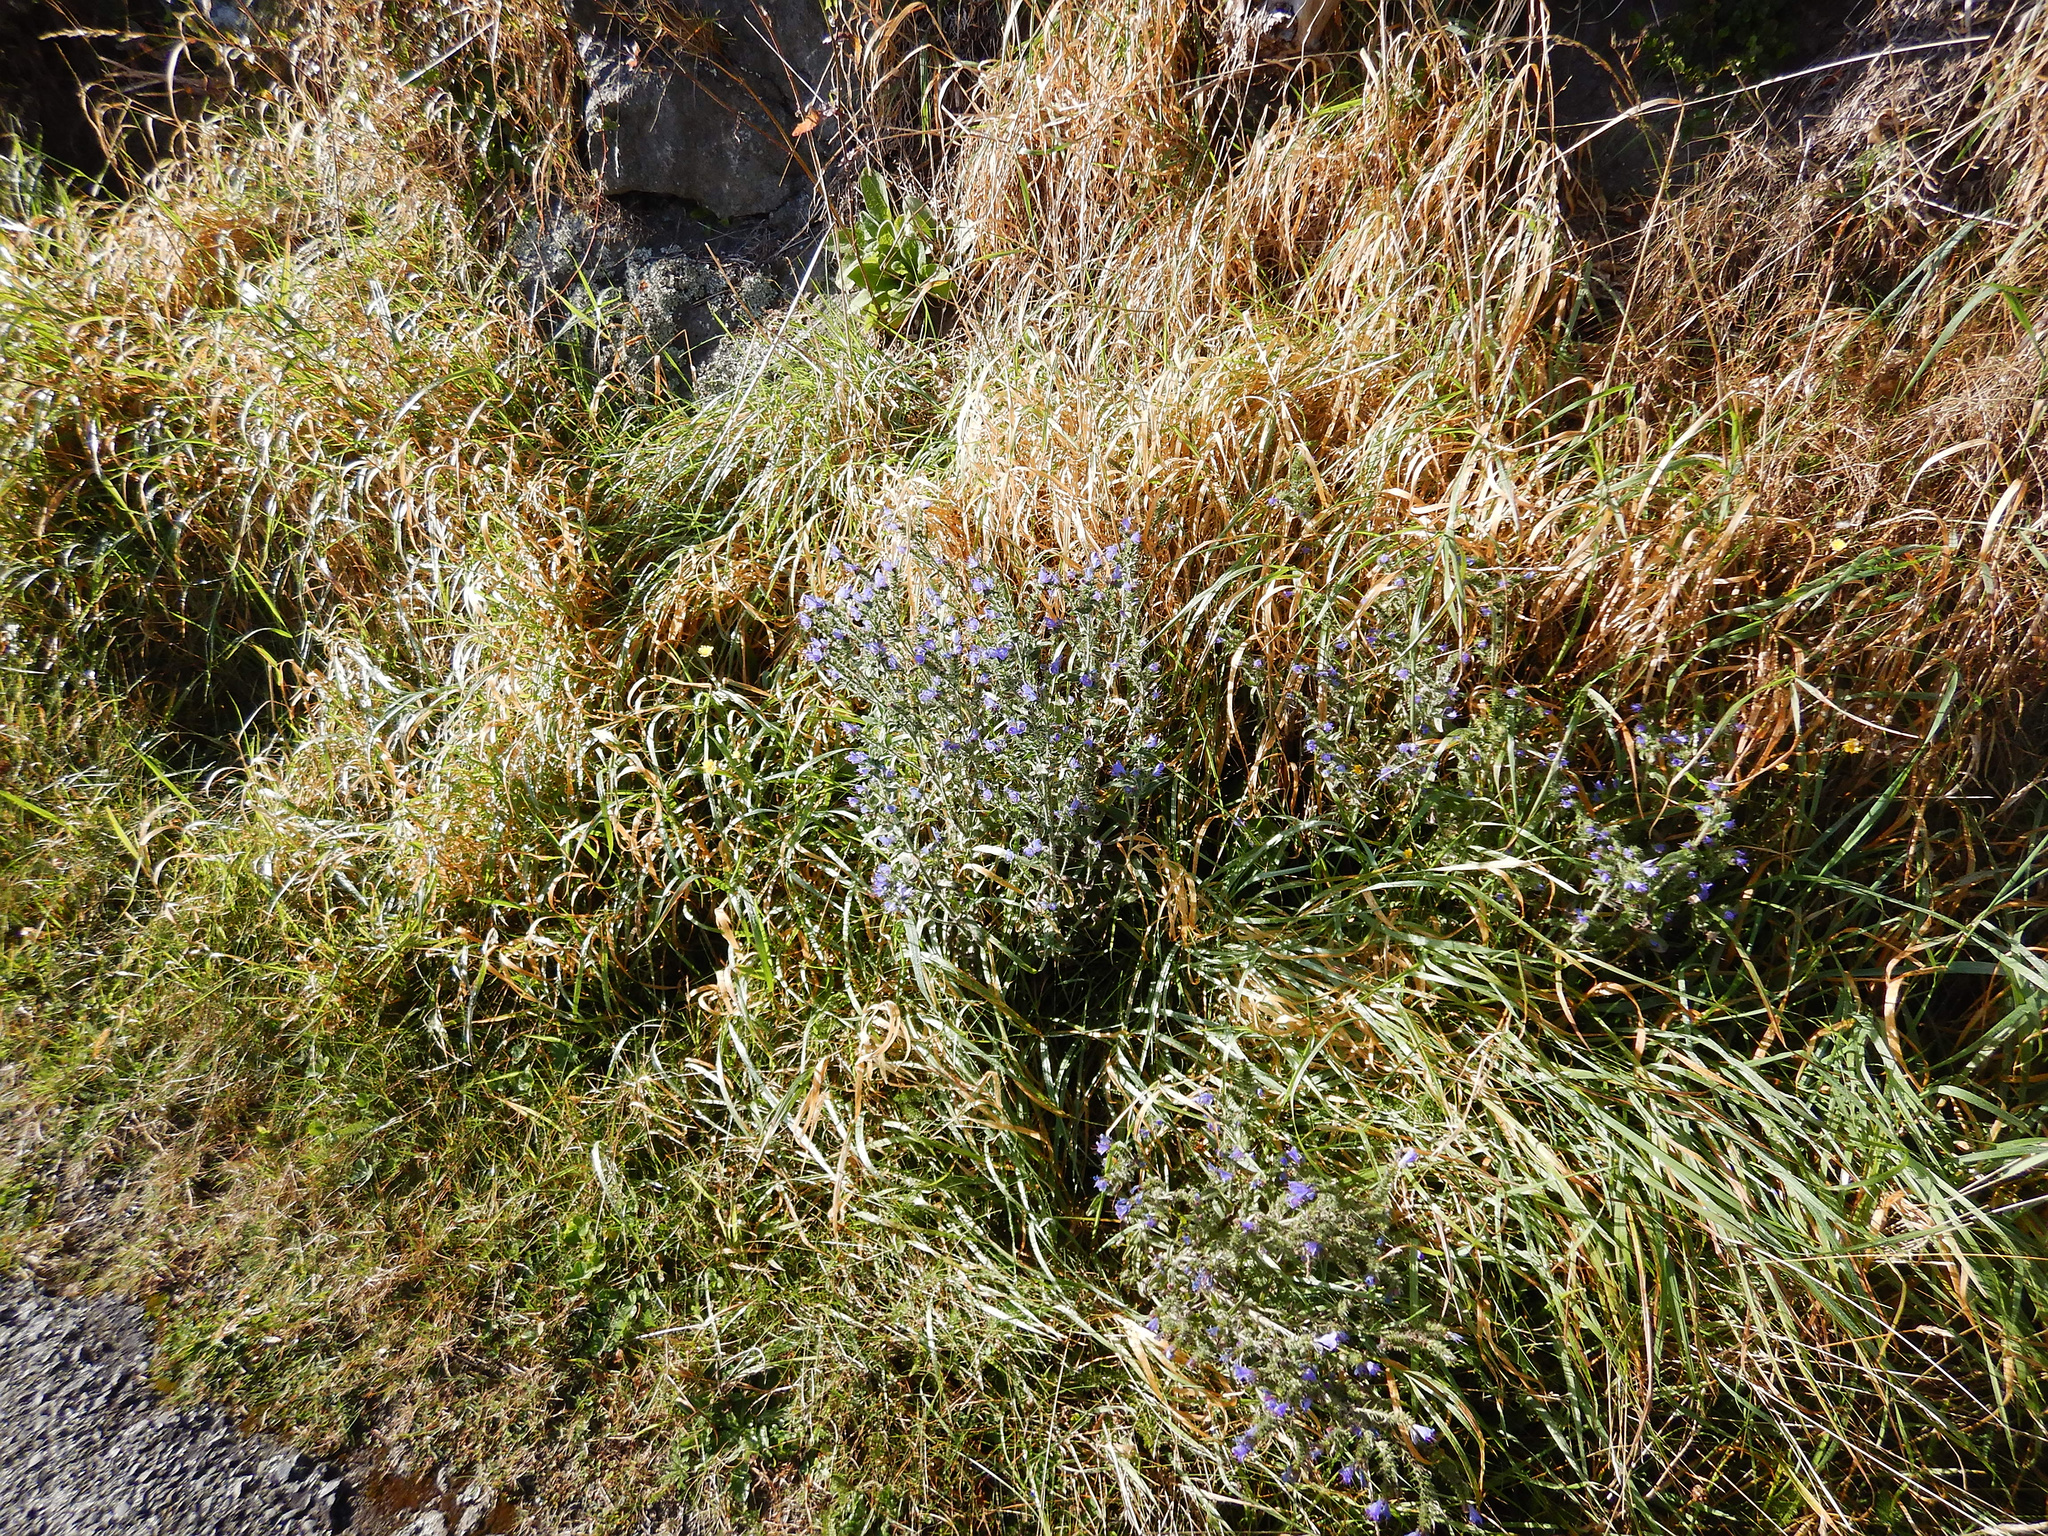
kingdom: Plantae
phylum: Tracheophyta
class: Magnoliopsida
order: Boraginales
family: Boraginaceae
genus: Echium
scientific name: Echium vulgare
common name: Common viper's bugloss
